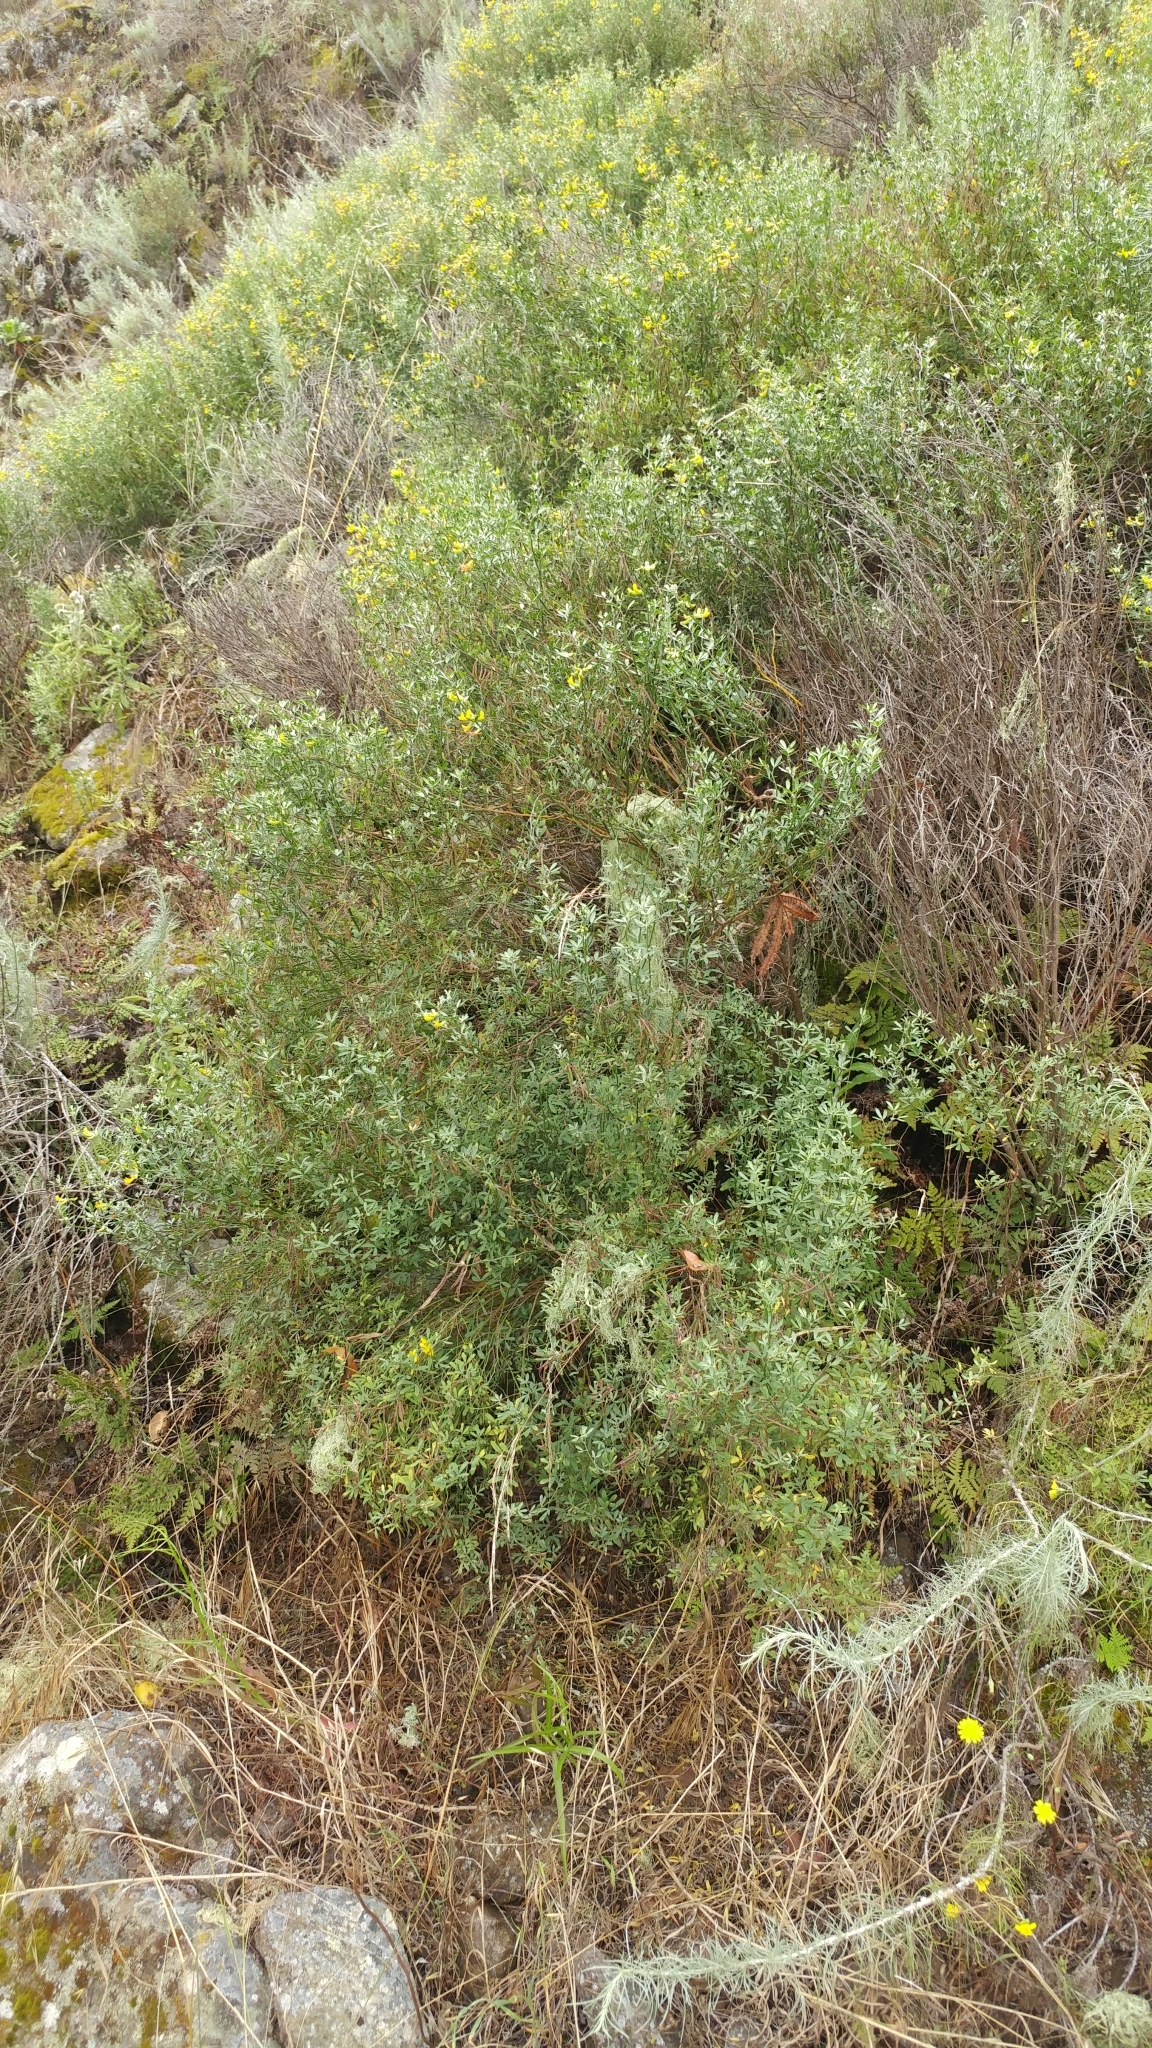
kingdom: Plantae
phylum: Tracheophyta
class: Magnoliopsida
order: Fabales
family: Fabaceae
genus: Acmispon
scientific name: Acmispon dendroideus
